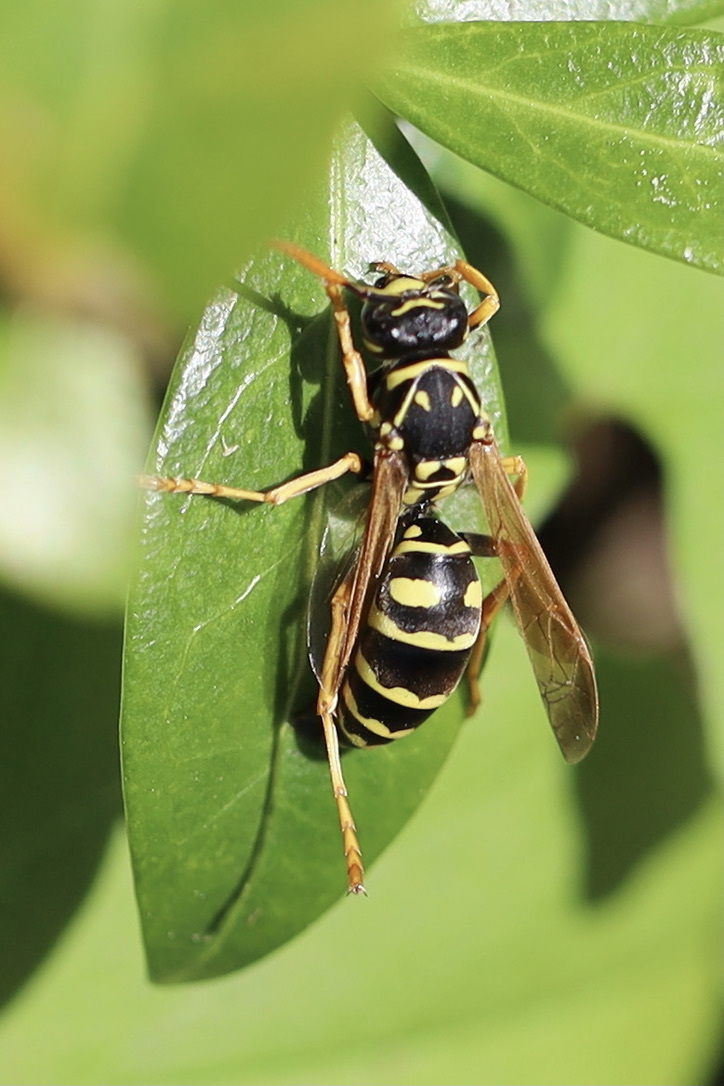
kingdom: Animalia
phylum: Arthropoda
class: Insecta
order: Hymenoptera
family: Eumenidae
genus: Polistes
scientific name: Polistes dominula
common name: Paper wasp
